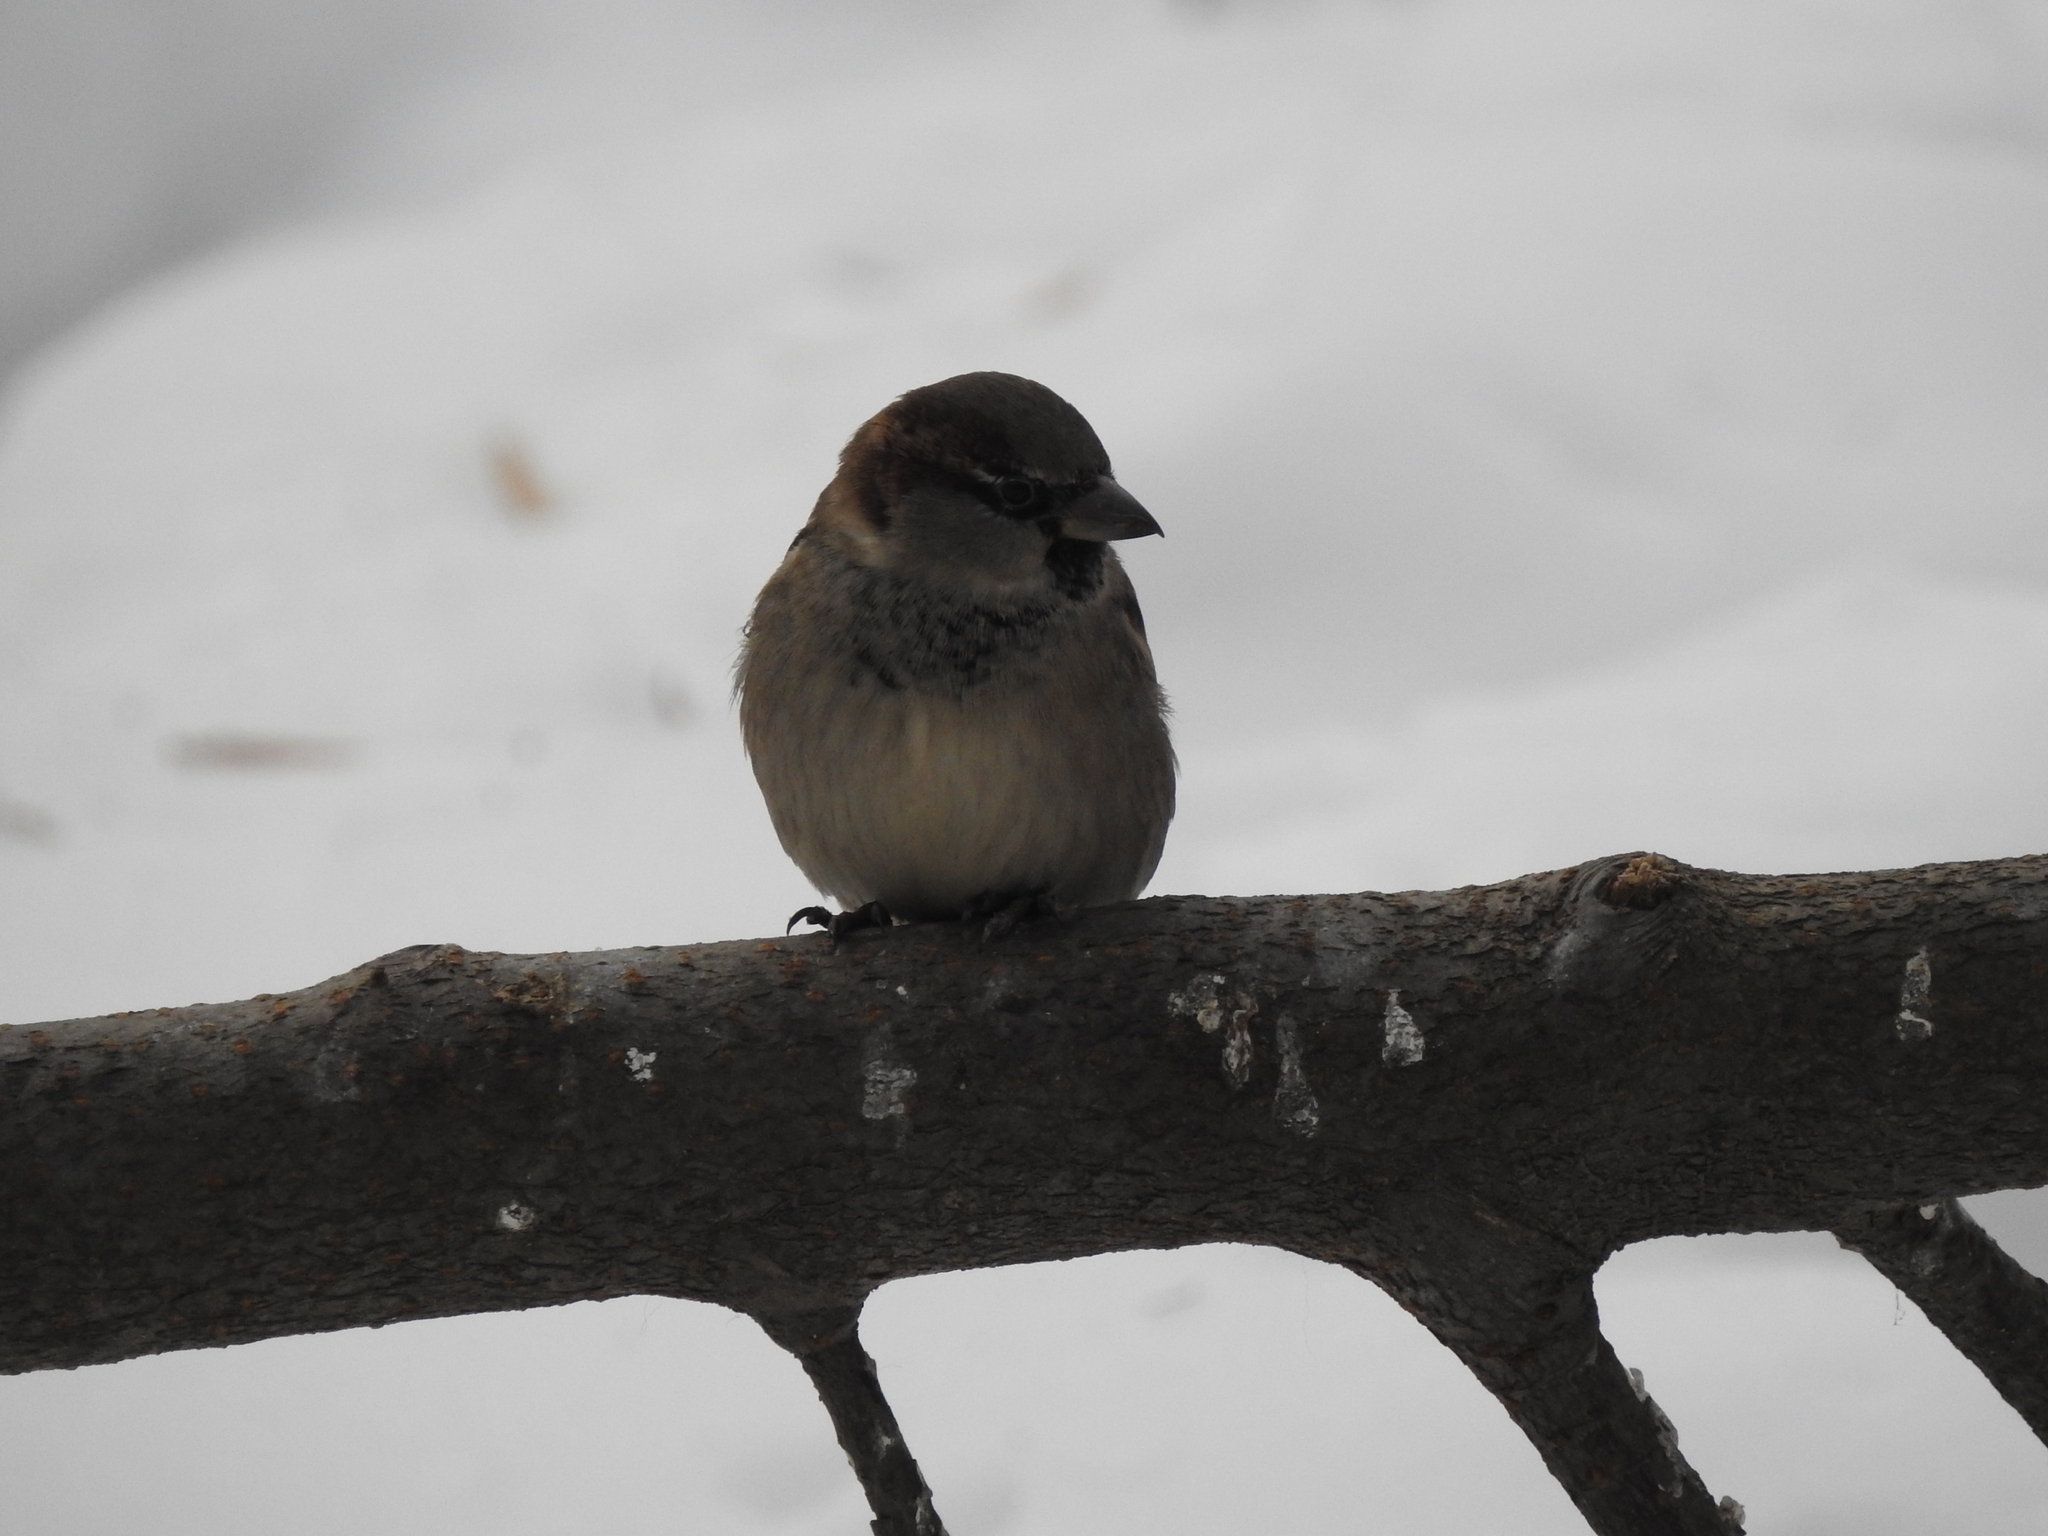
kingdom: Animalia
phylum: Chordata
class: Aves
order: Passeriformes
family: Passeridae
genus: Passer
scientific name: Passer domesticus
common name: House sparrow
